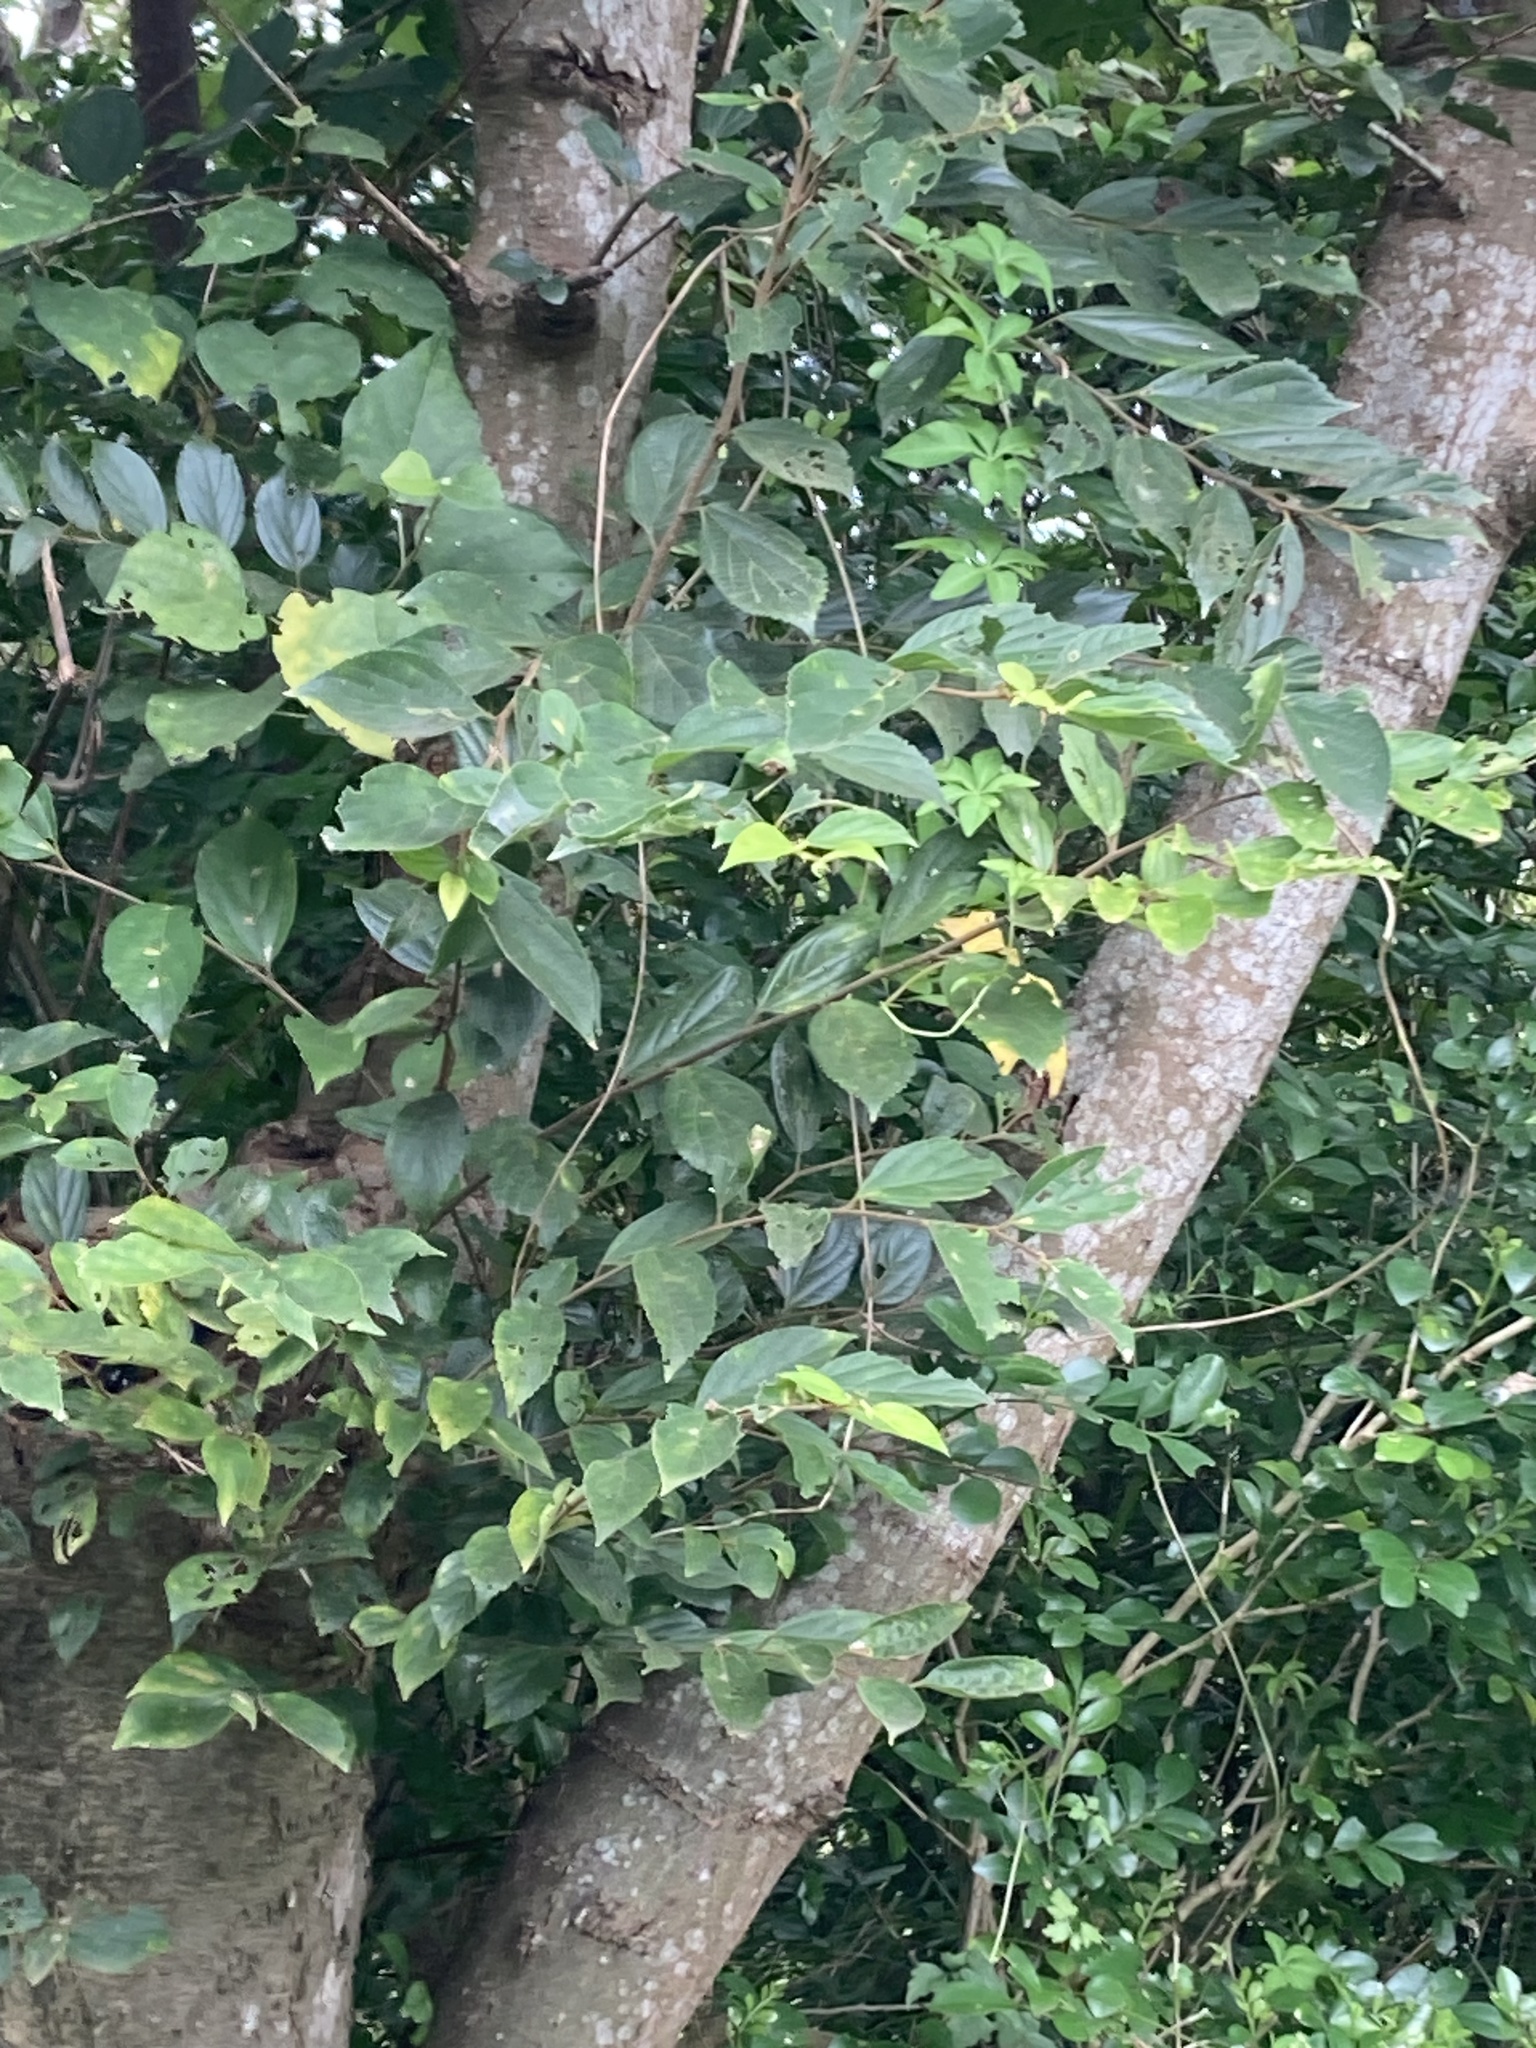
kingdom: Plantae
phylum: Tracheophyta
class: Magnoliopsida
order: Rosales
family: Cannabaceae
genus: Celtis
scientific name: Celtis sinensis
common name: Chinese hackberry
